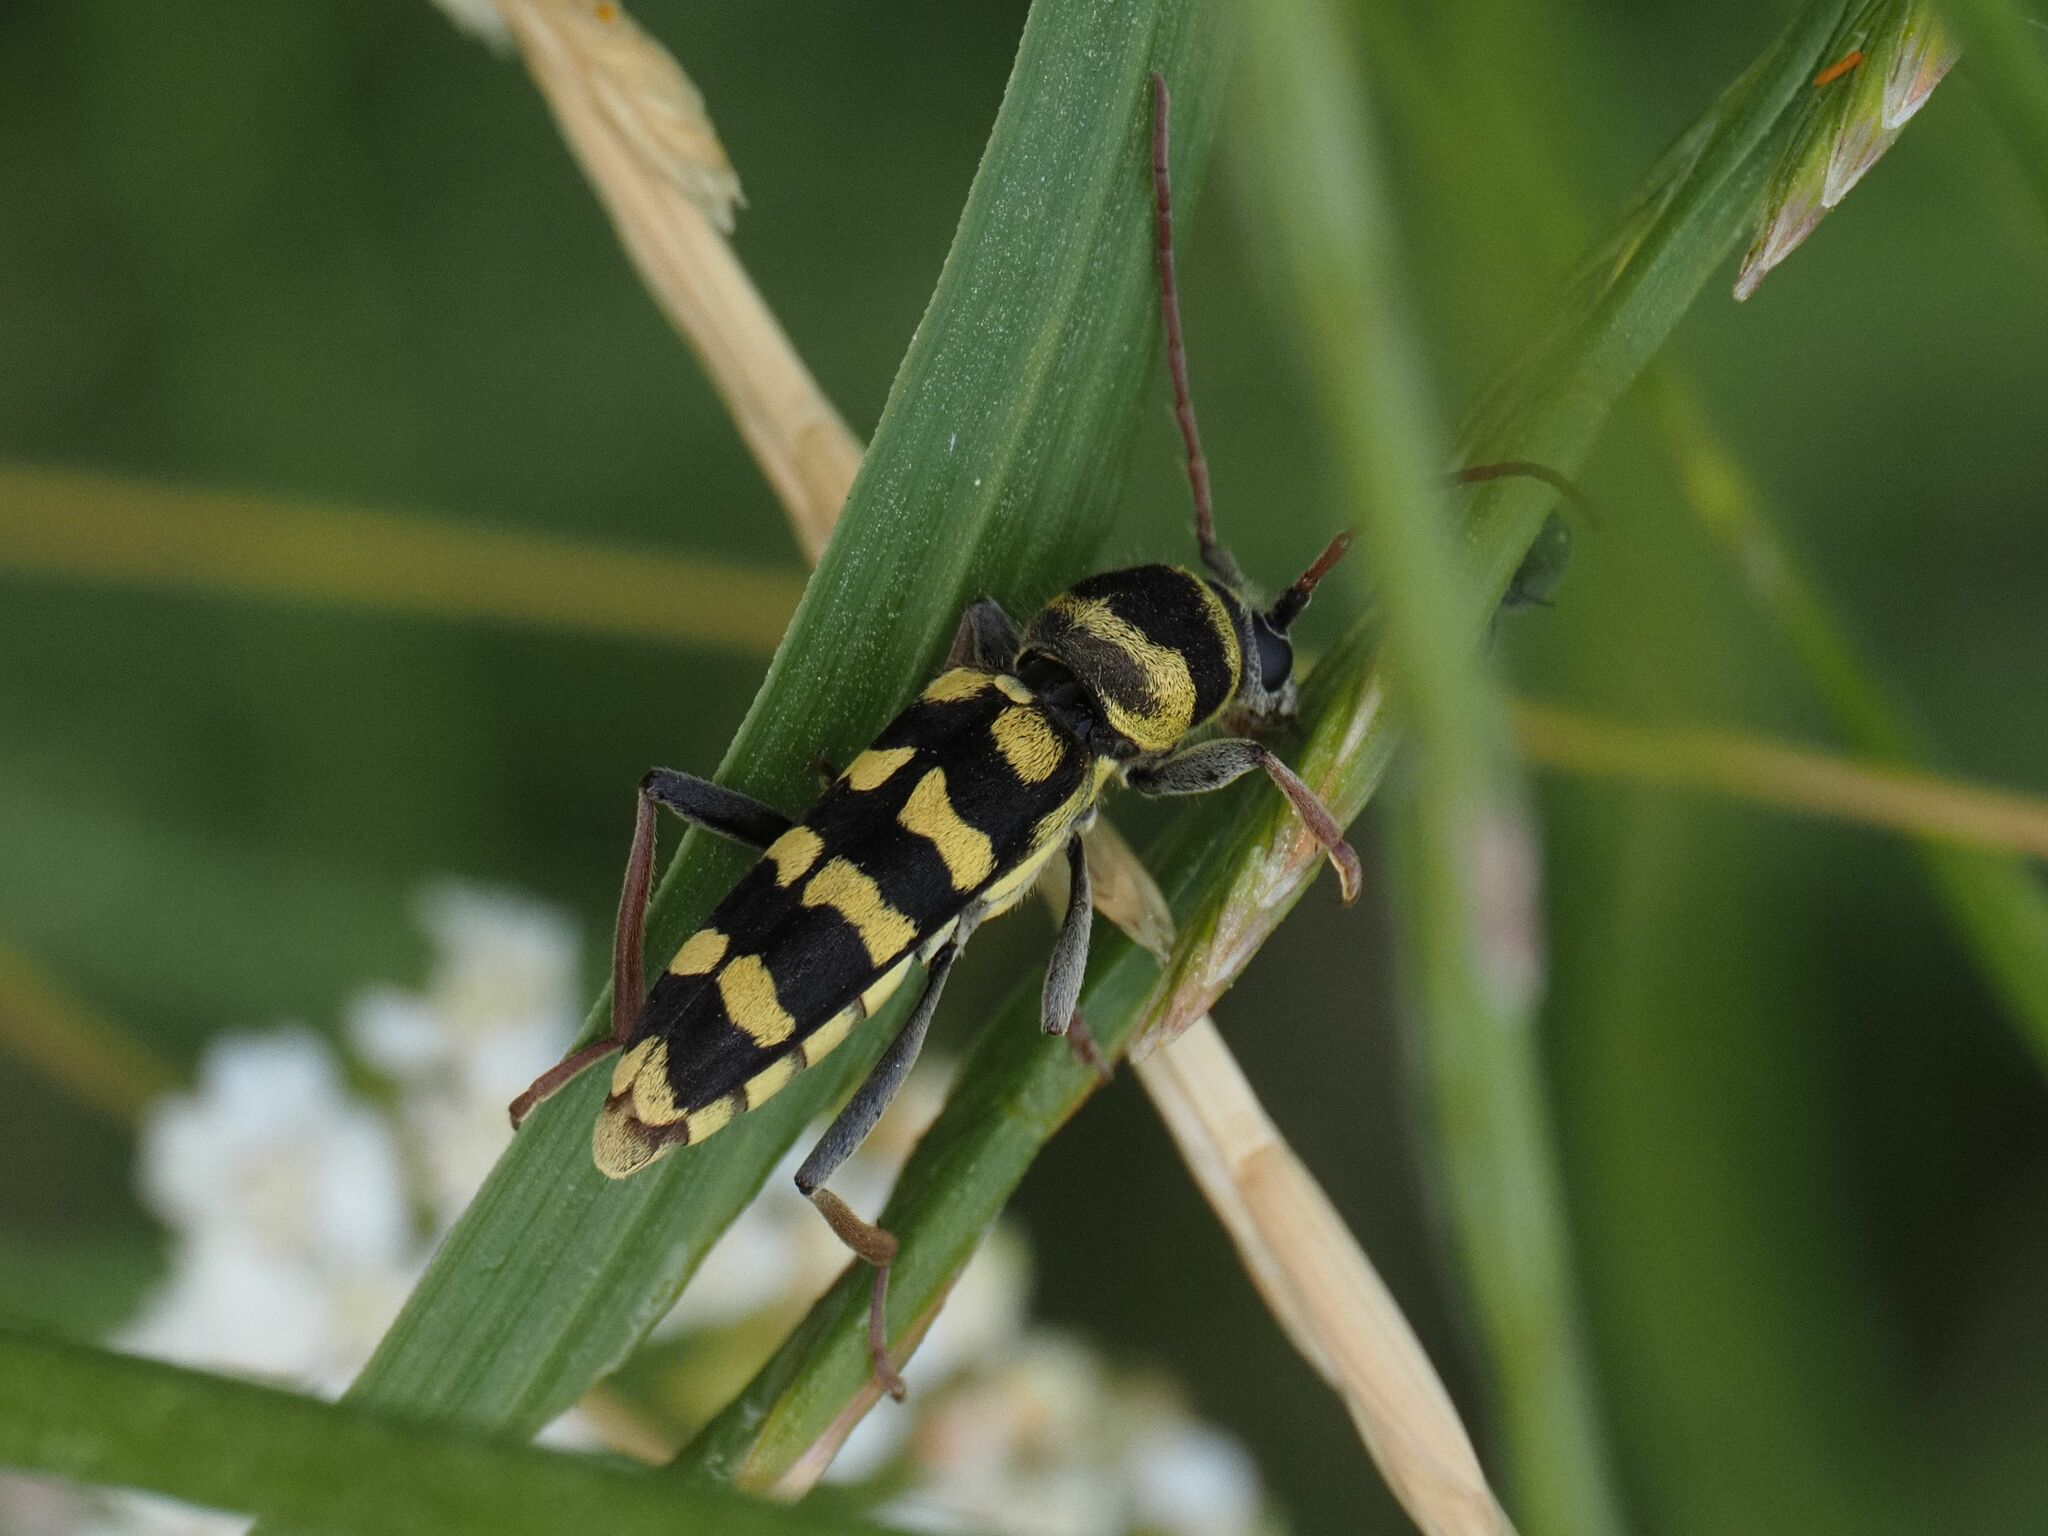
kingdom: Animalia
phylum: Arthropoda
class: Insecta
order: Coleoptera
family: Cerambycidae
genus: Plagionotus
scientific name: Plagionotus floralis
